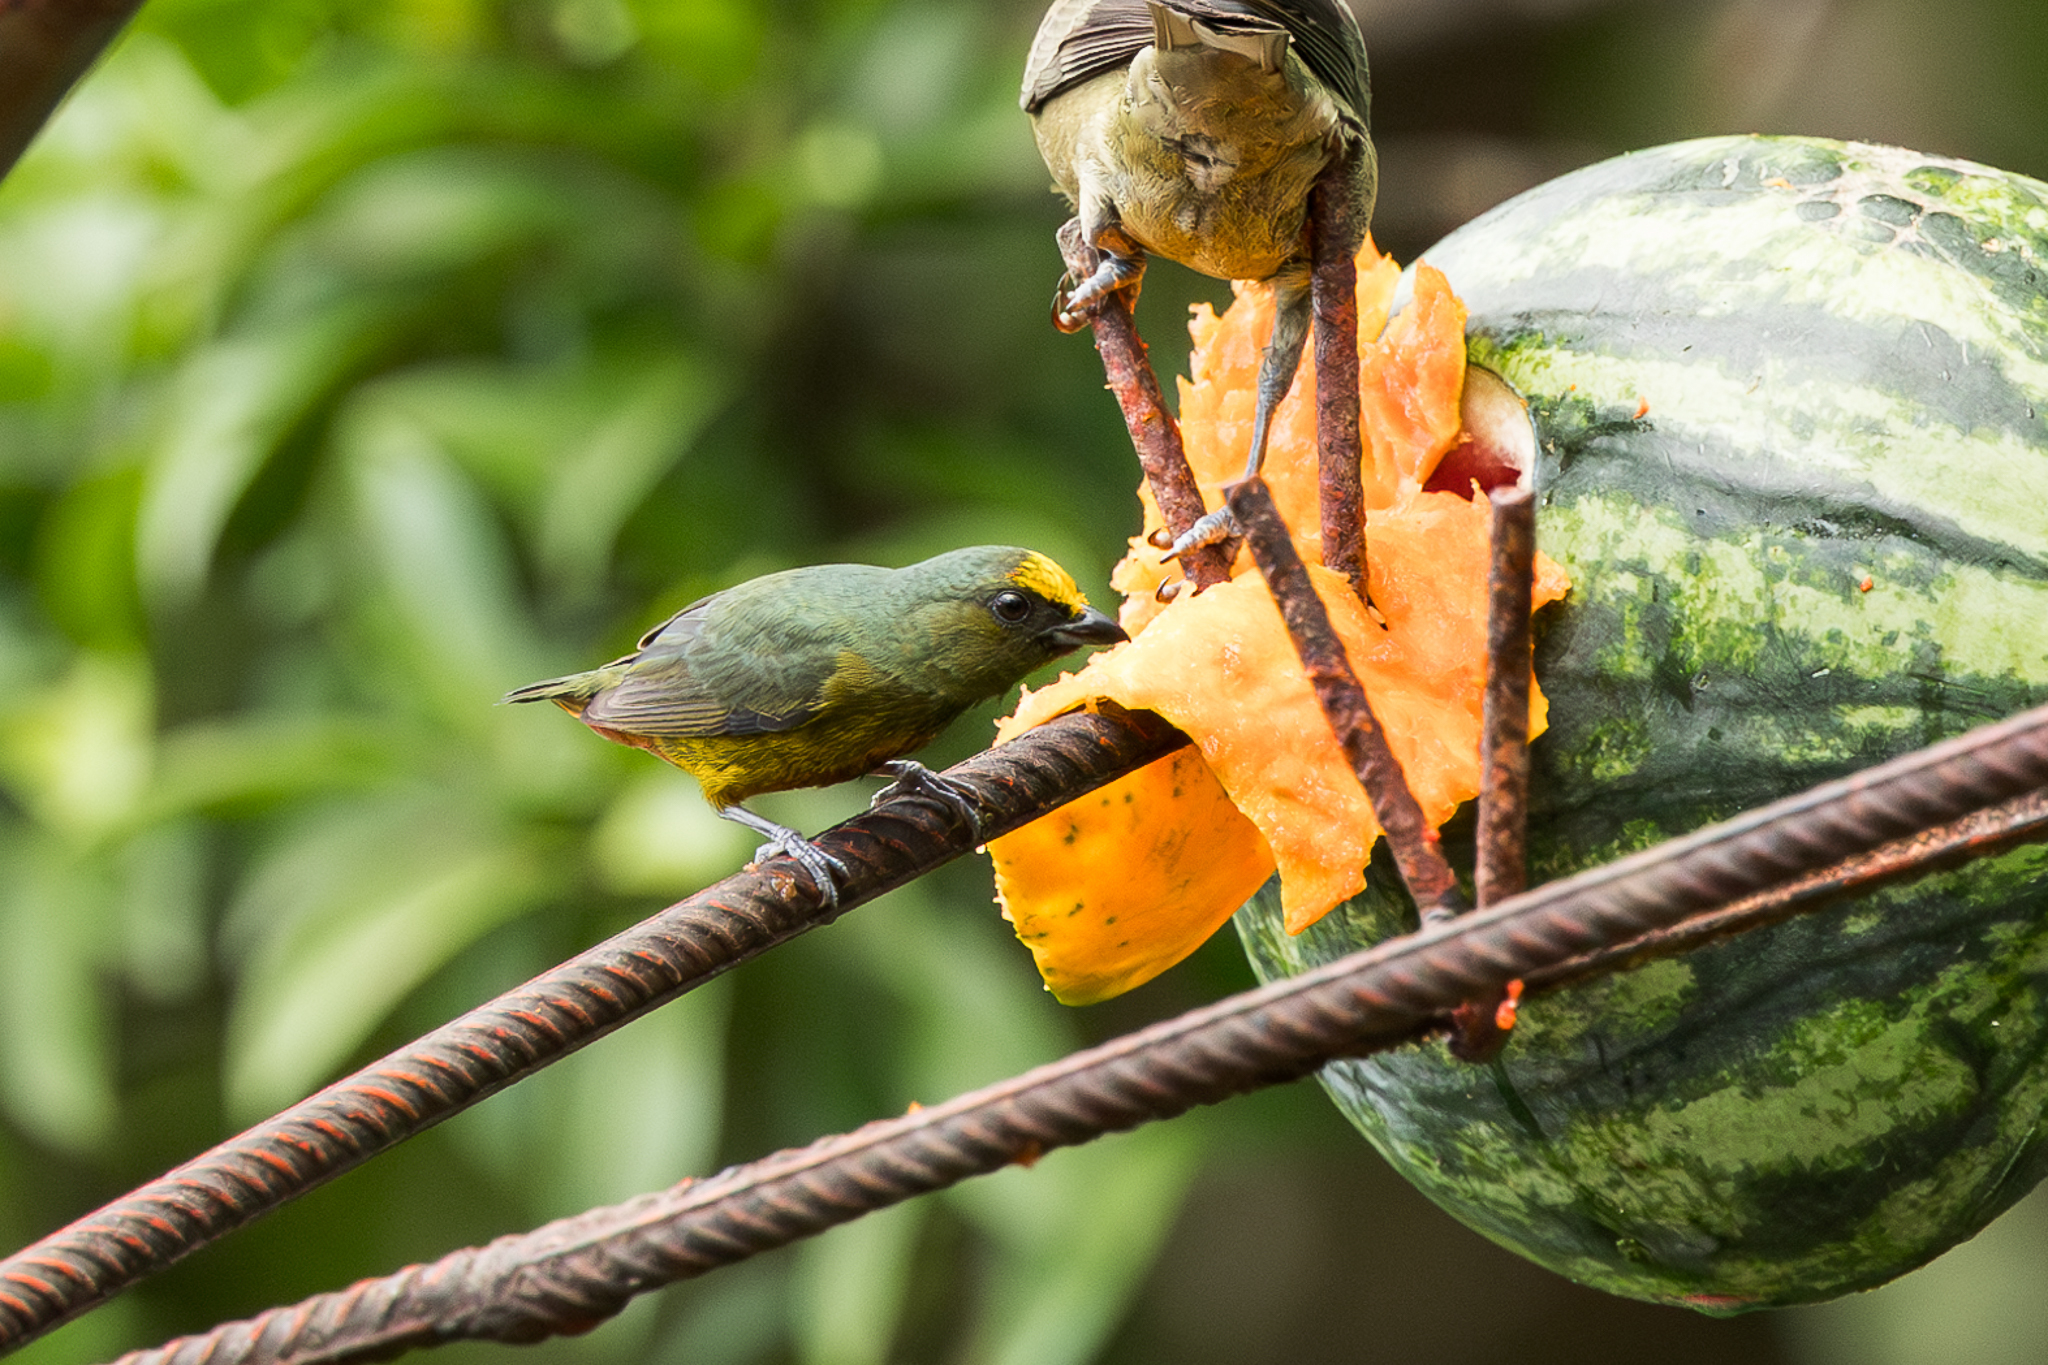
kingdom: Animalia
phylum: Chordata
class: Aves
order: Passeriformes
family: Fringillidae
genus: Euphonia
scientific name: Euphonia gouldi
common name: Olive-backed euphonia
